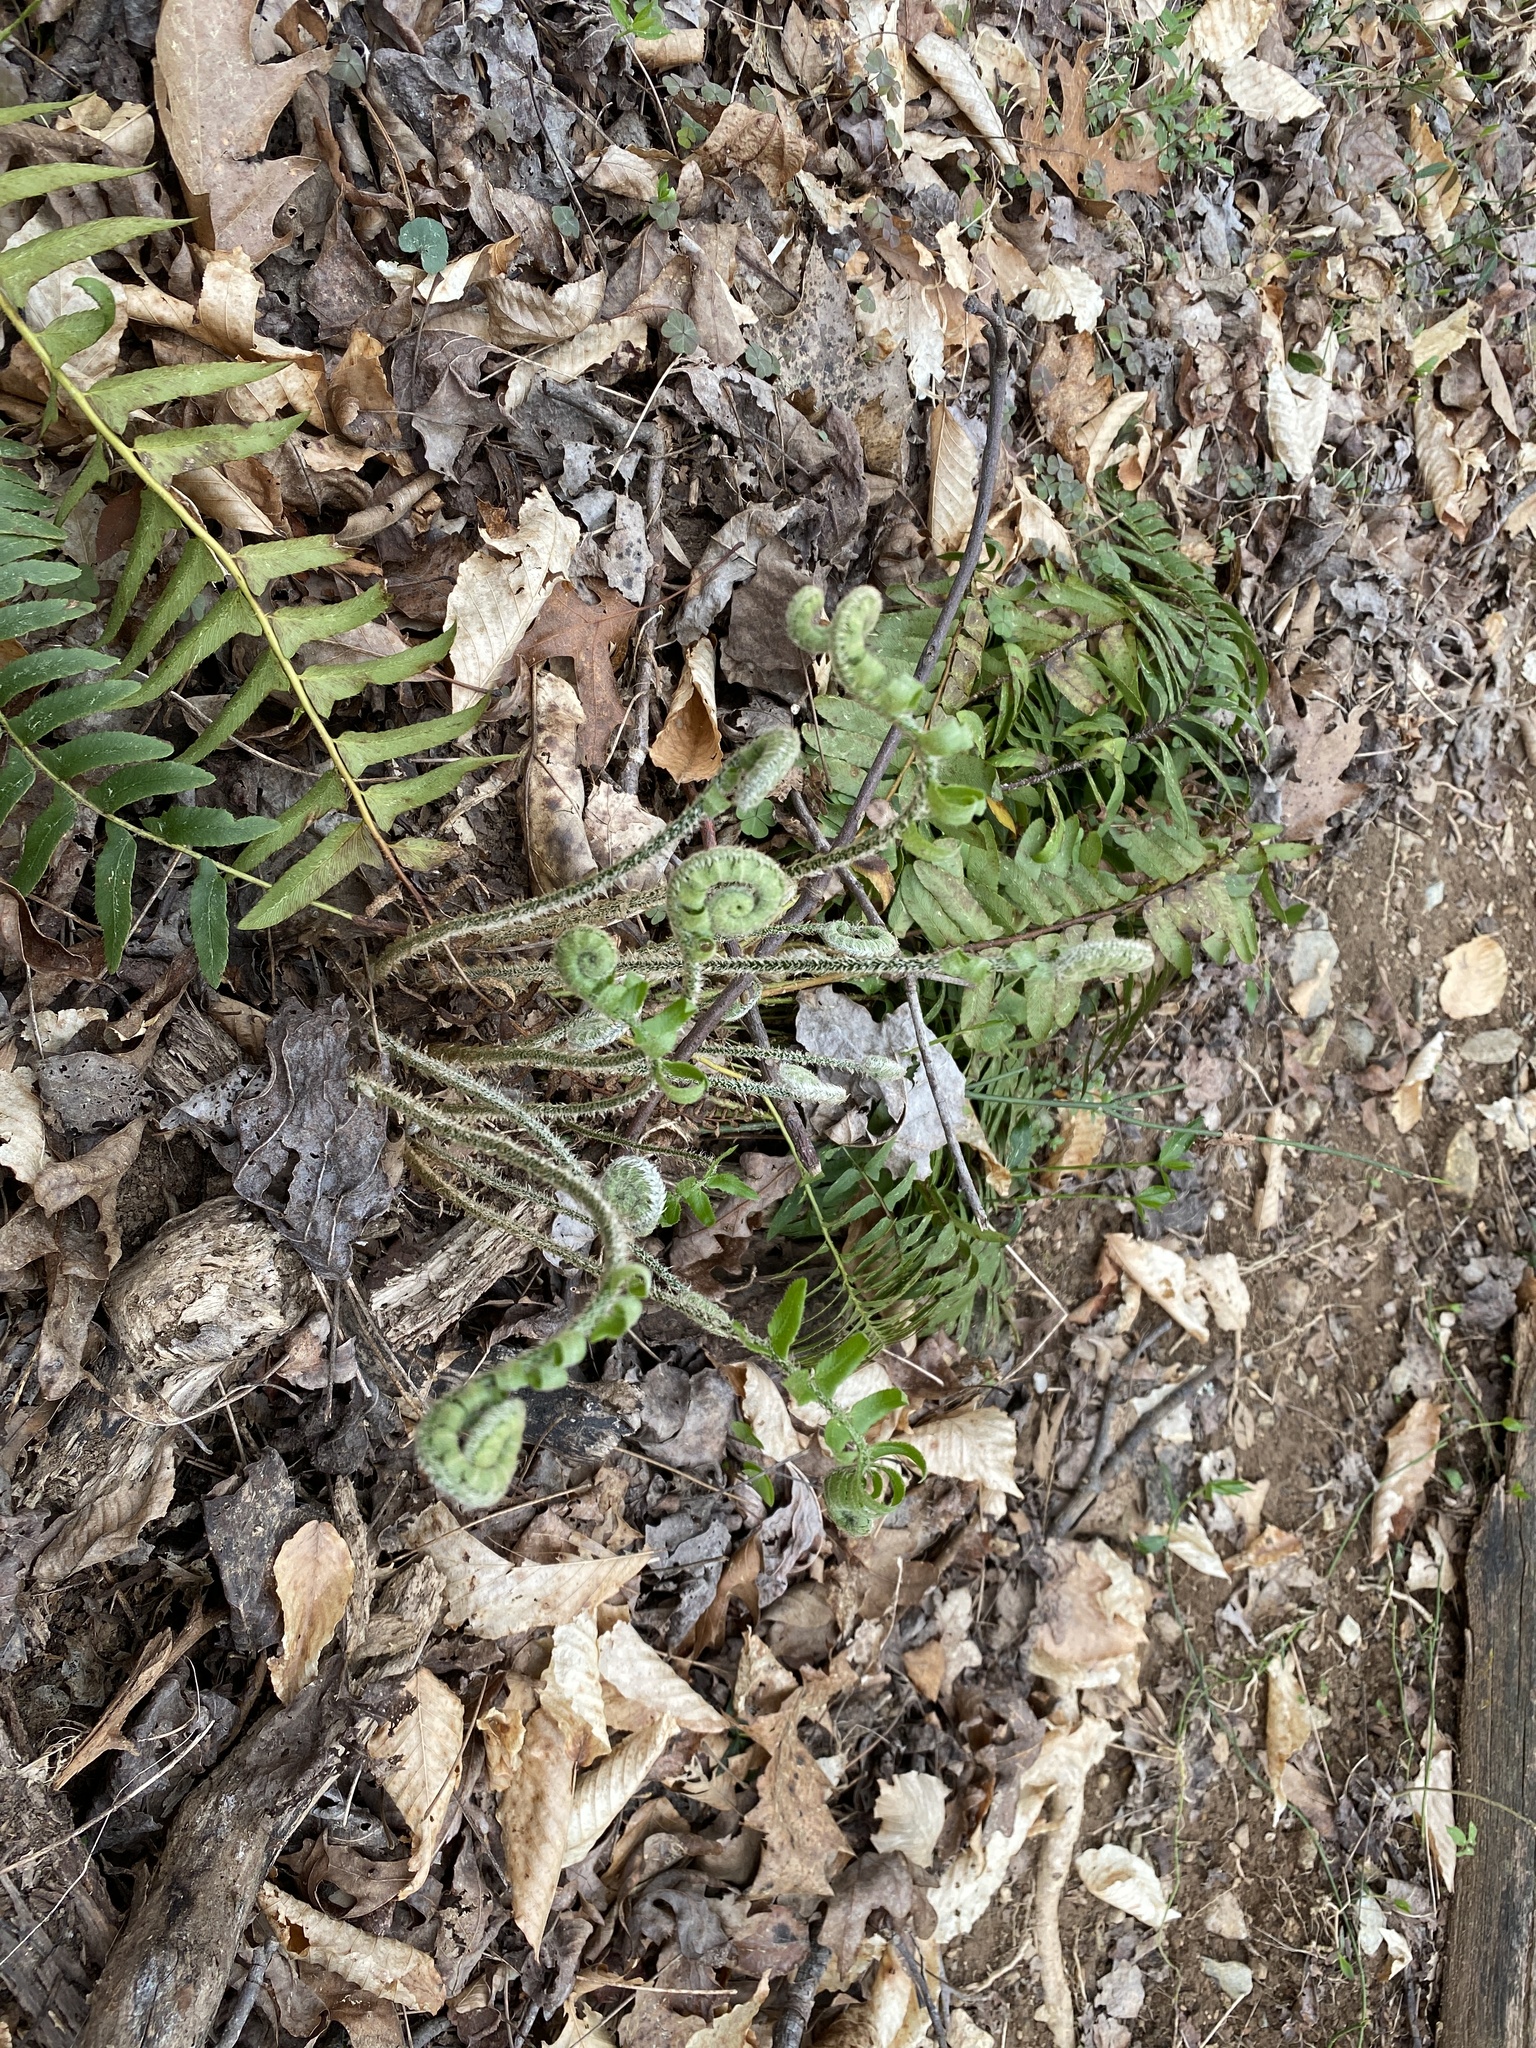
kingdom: Plantae
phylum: Tracheophyta
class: Polypodiopsida
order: Polypodiales
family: Dryopteridaceae
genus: Polystichum
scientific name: Polystichum acrostichoides
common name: Christmas fern
